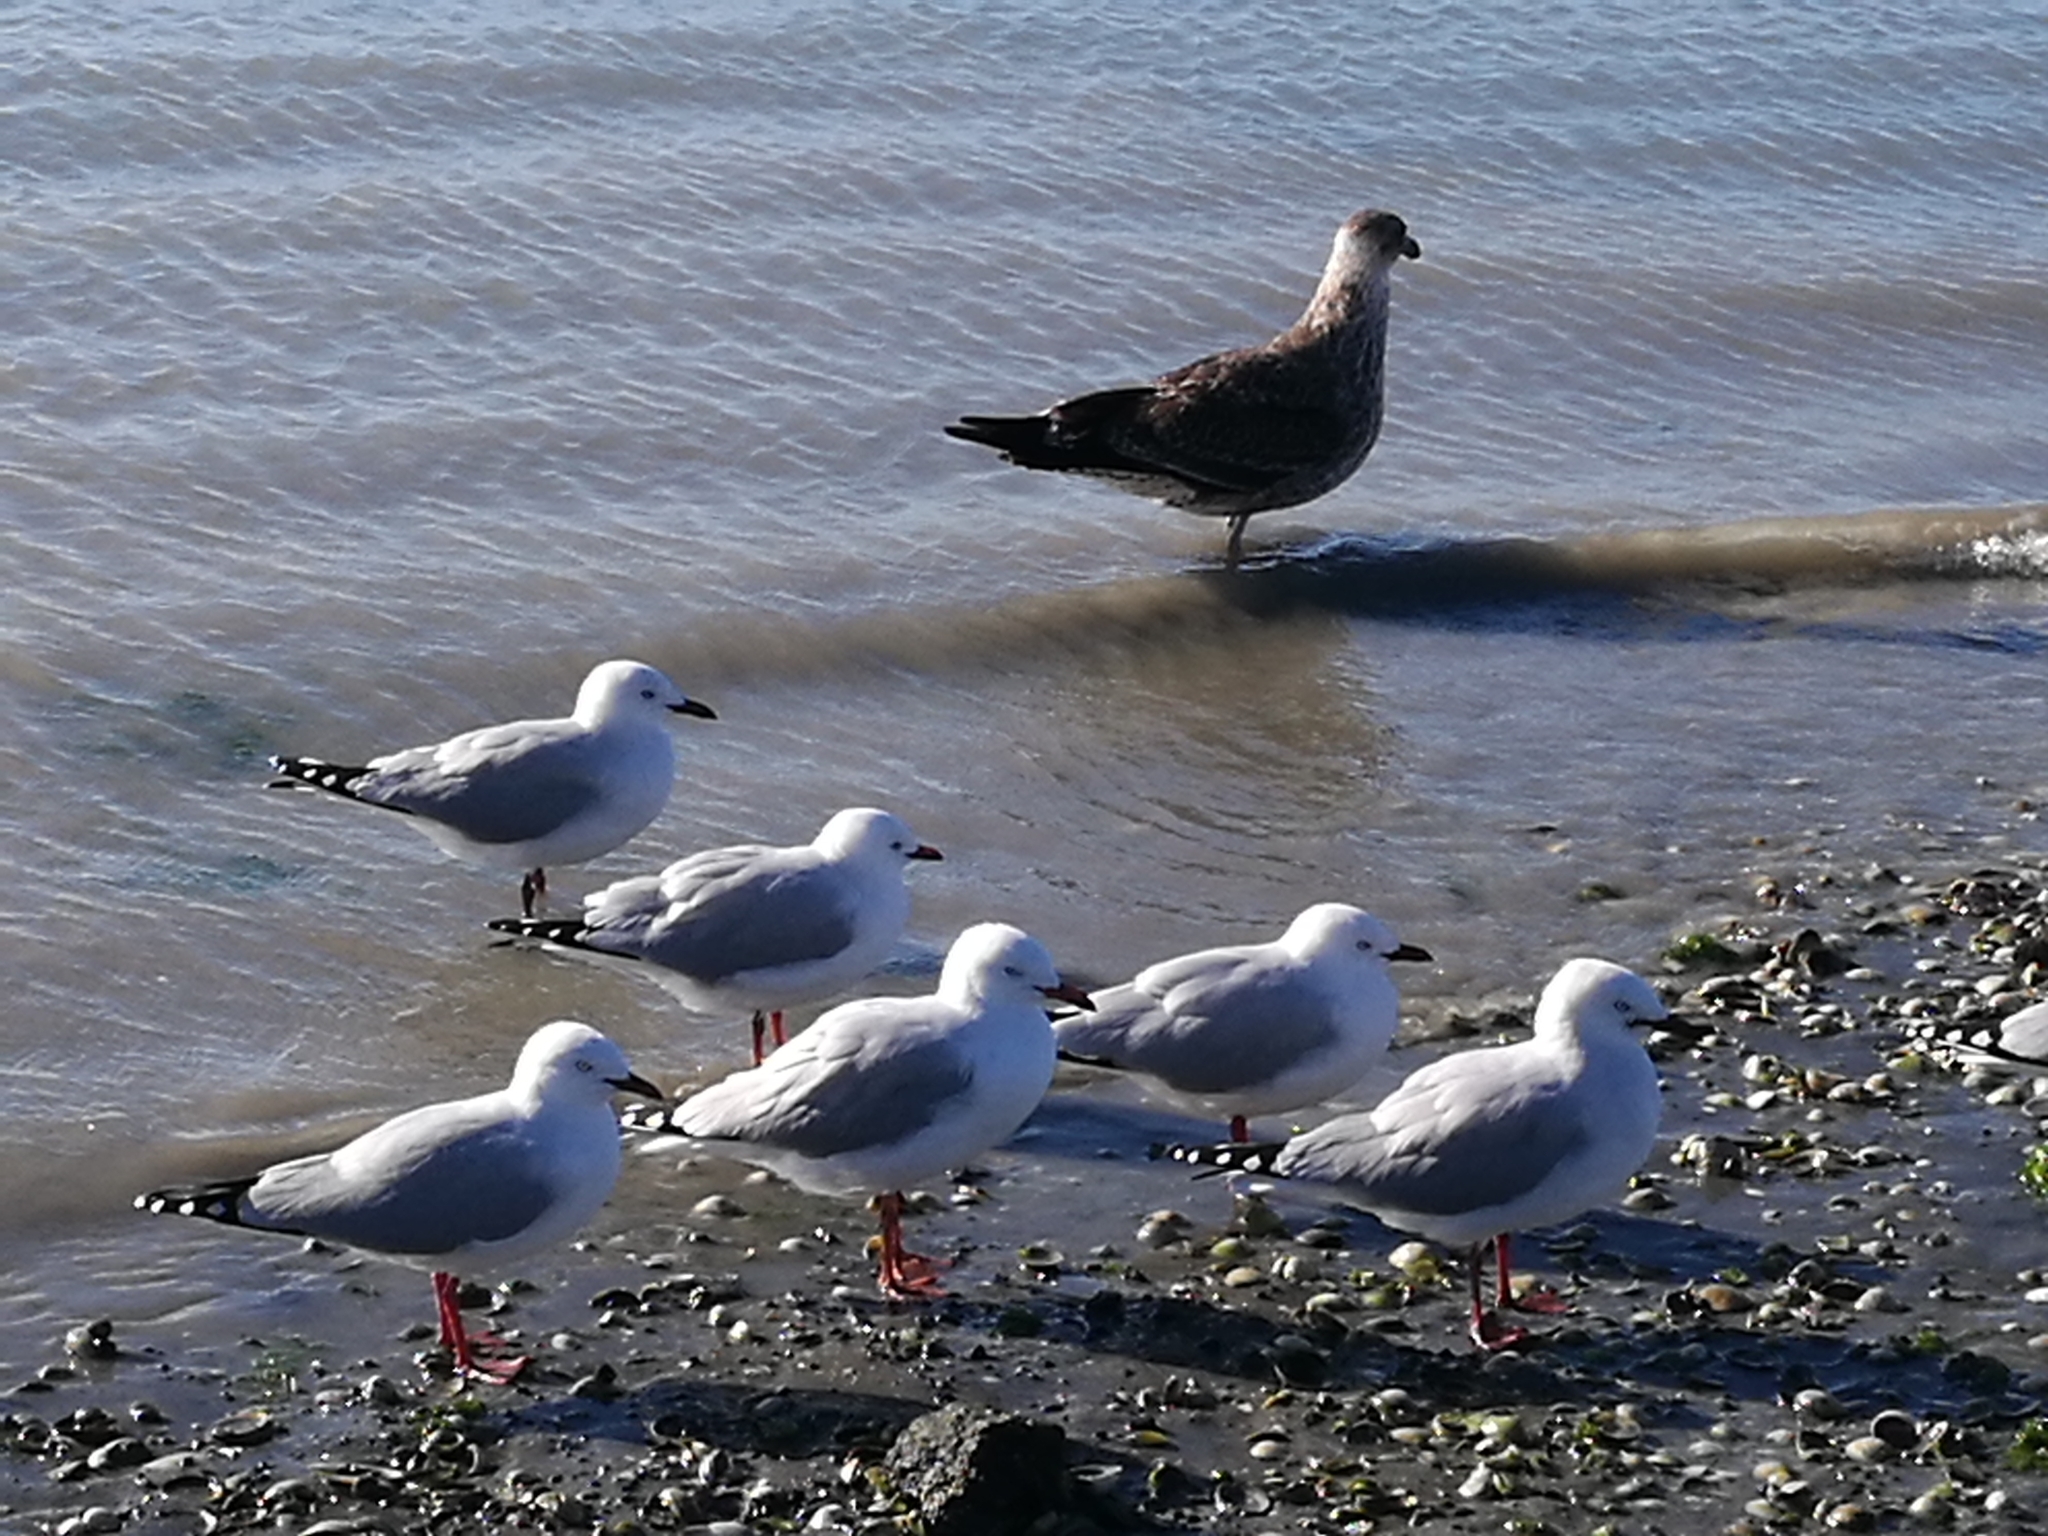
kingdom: Animalia
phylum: Chordata
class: Aves
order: Charadriiformes
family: Laridae
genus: Chroicocephalus
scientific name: Chroicocephalus novaehollandiae
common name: Silver gull
